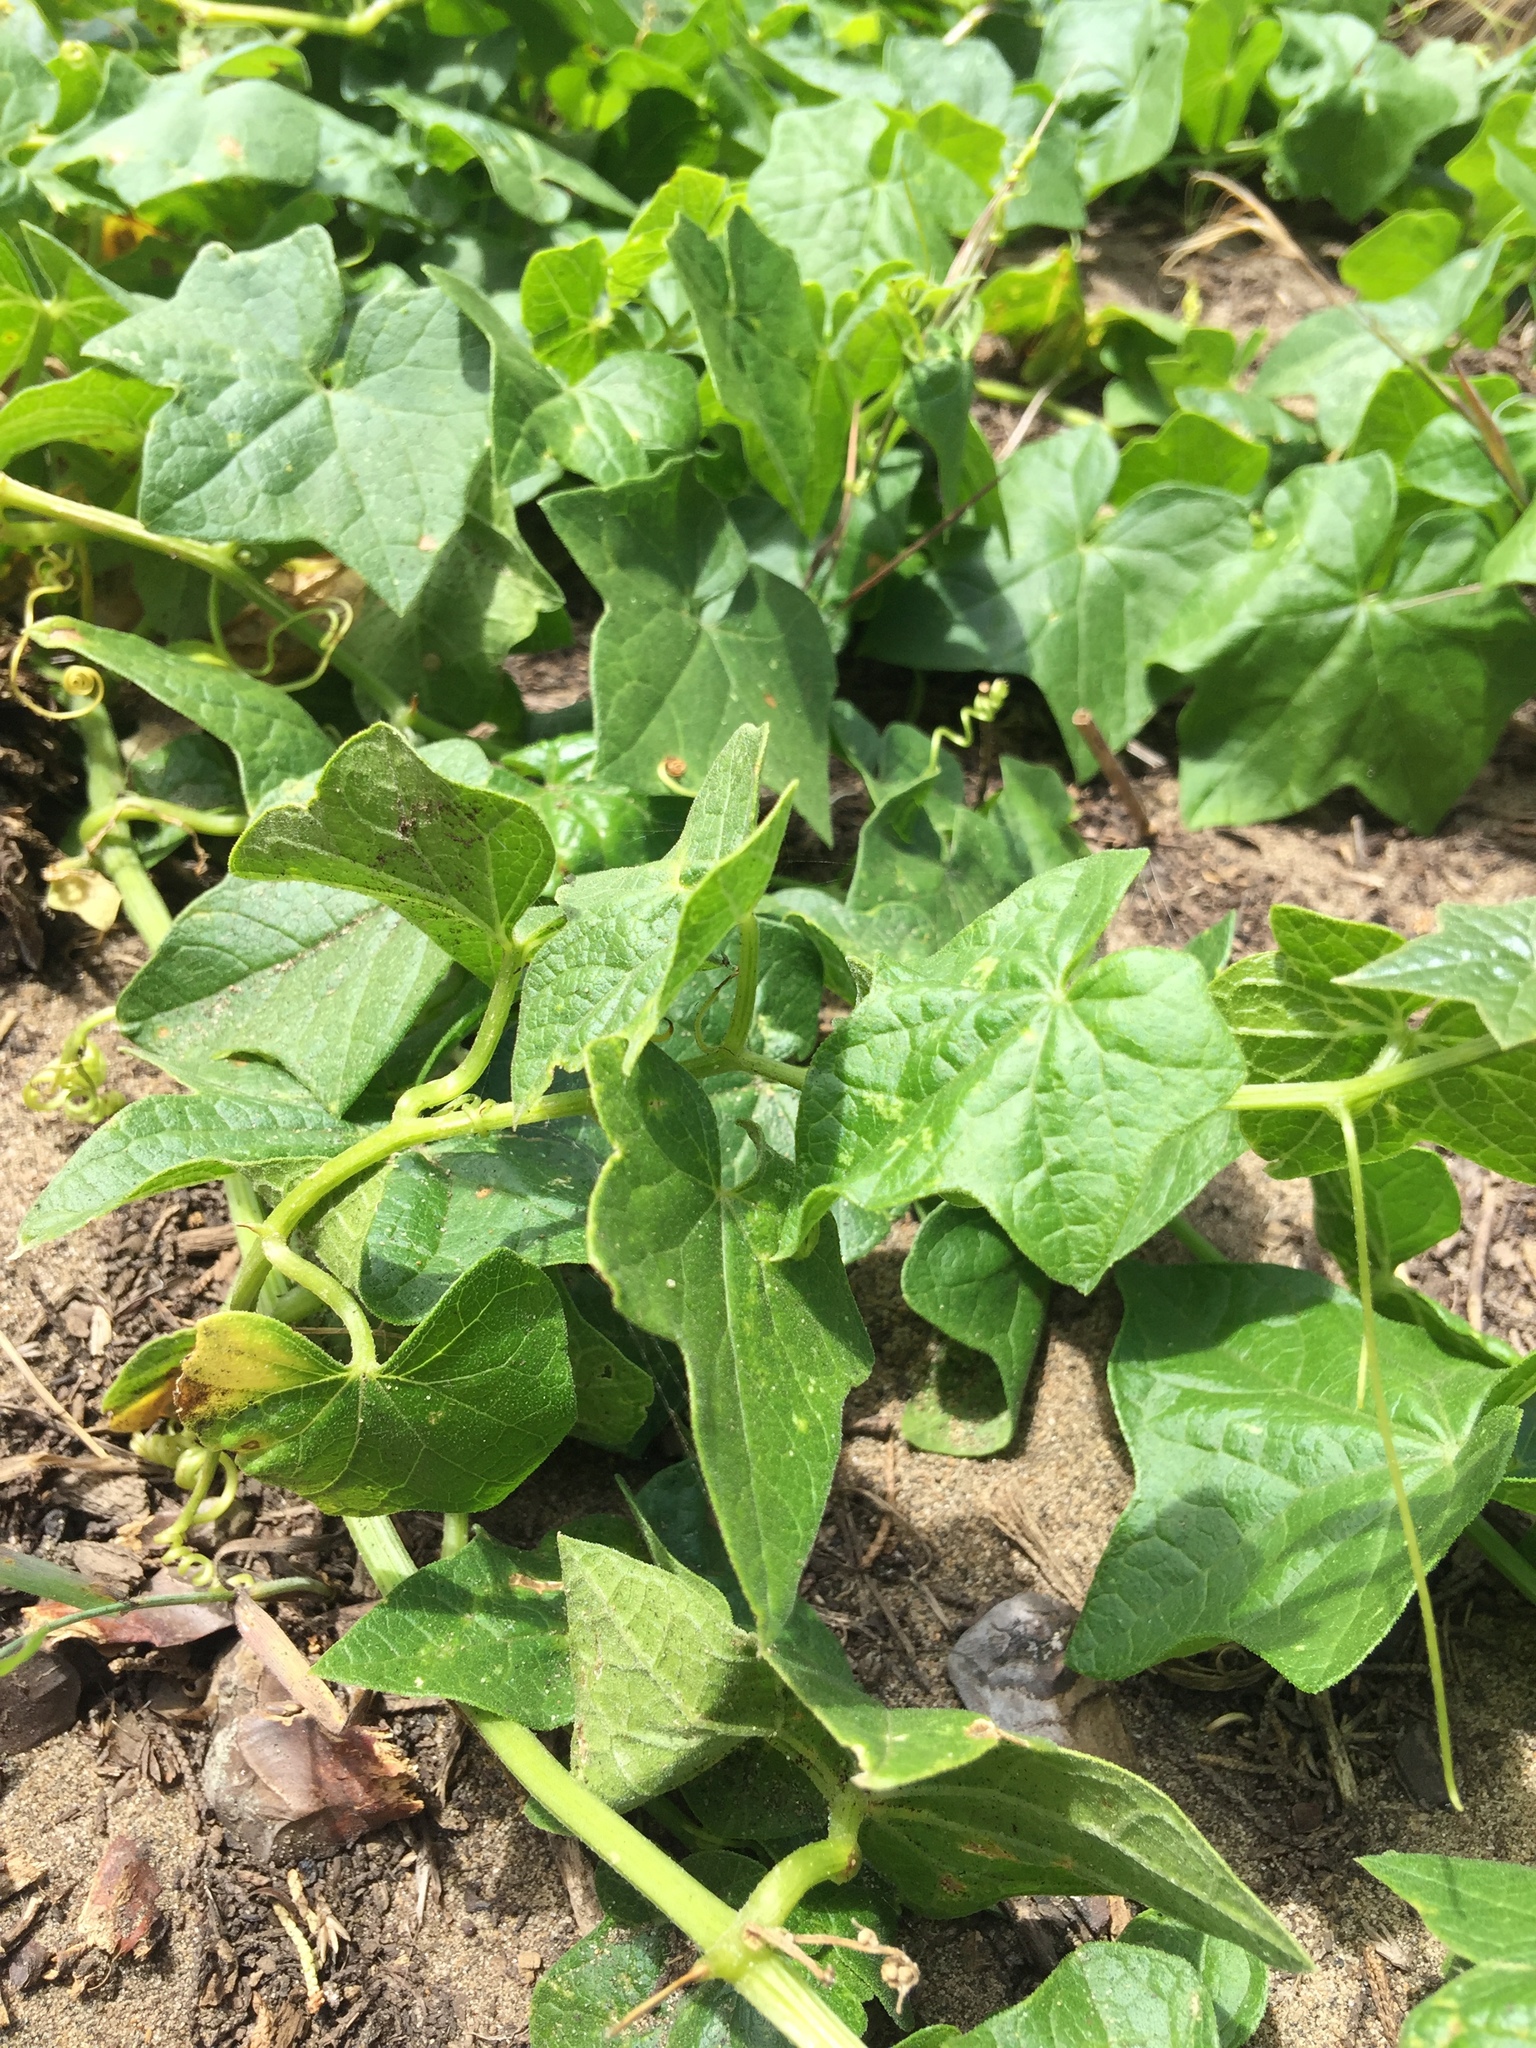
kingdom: Plantae
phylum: Tracheophyta
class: Magnoliopsida
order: Cucurbitales
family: Cucurbitaceae
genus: Marah
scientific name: Marah fabacea
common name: California manroot
